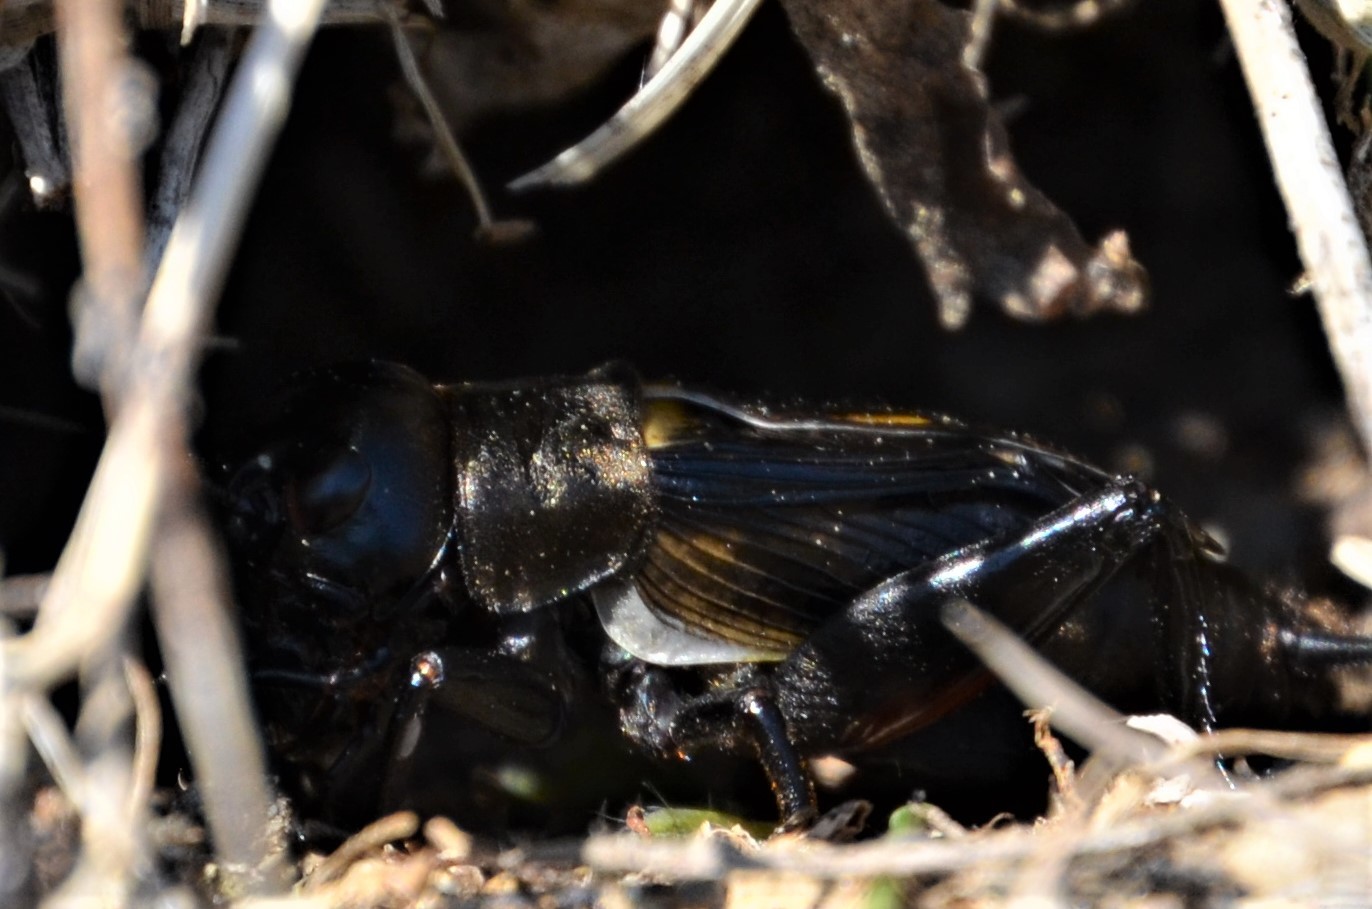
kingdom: Animalia
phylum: Arthropoda
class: Insecta
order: Orthoptera
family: Gryllidae
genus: Gryllus
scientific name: Gryllus campestris
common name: Field cricket
